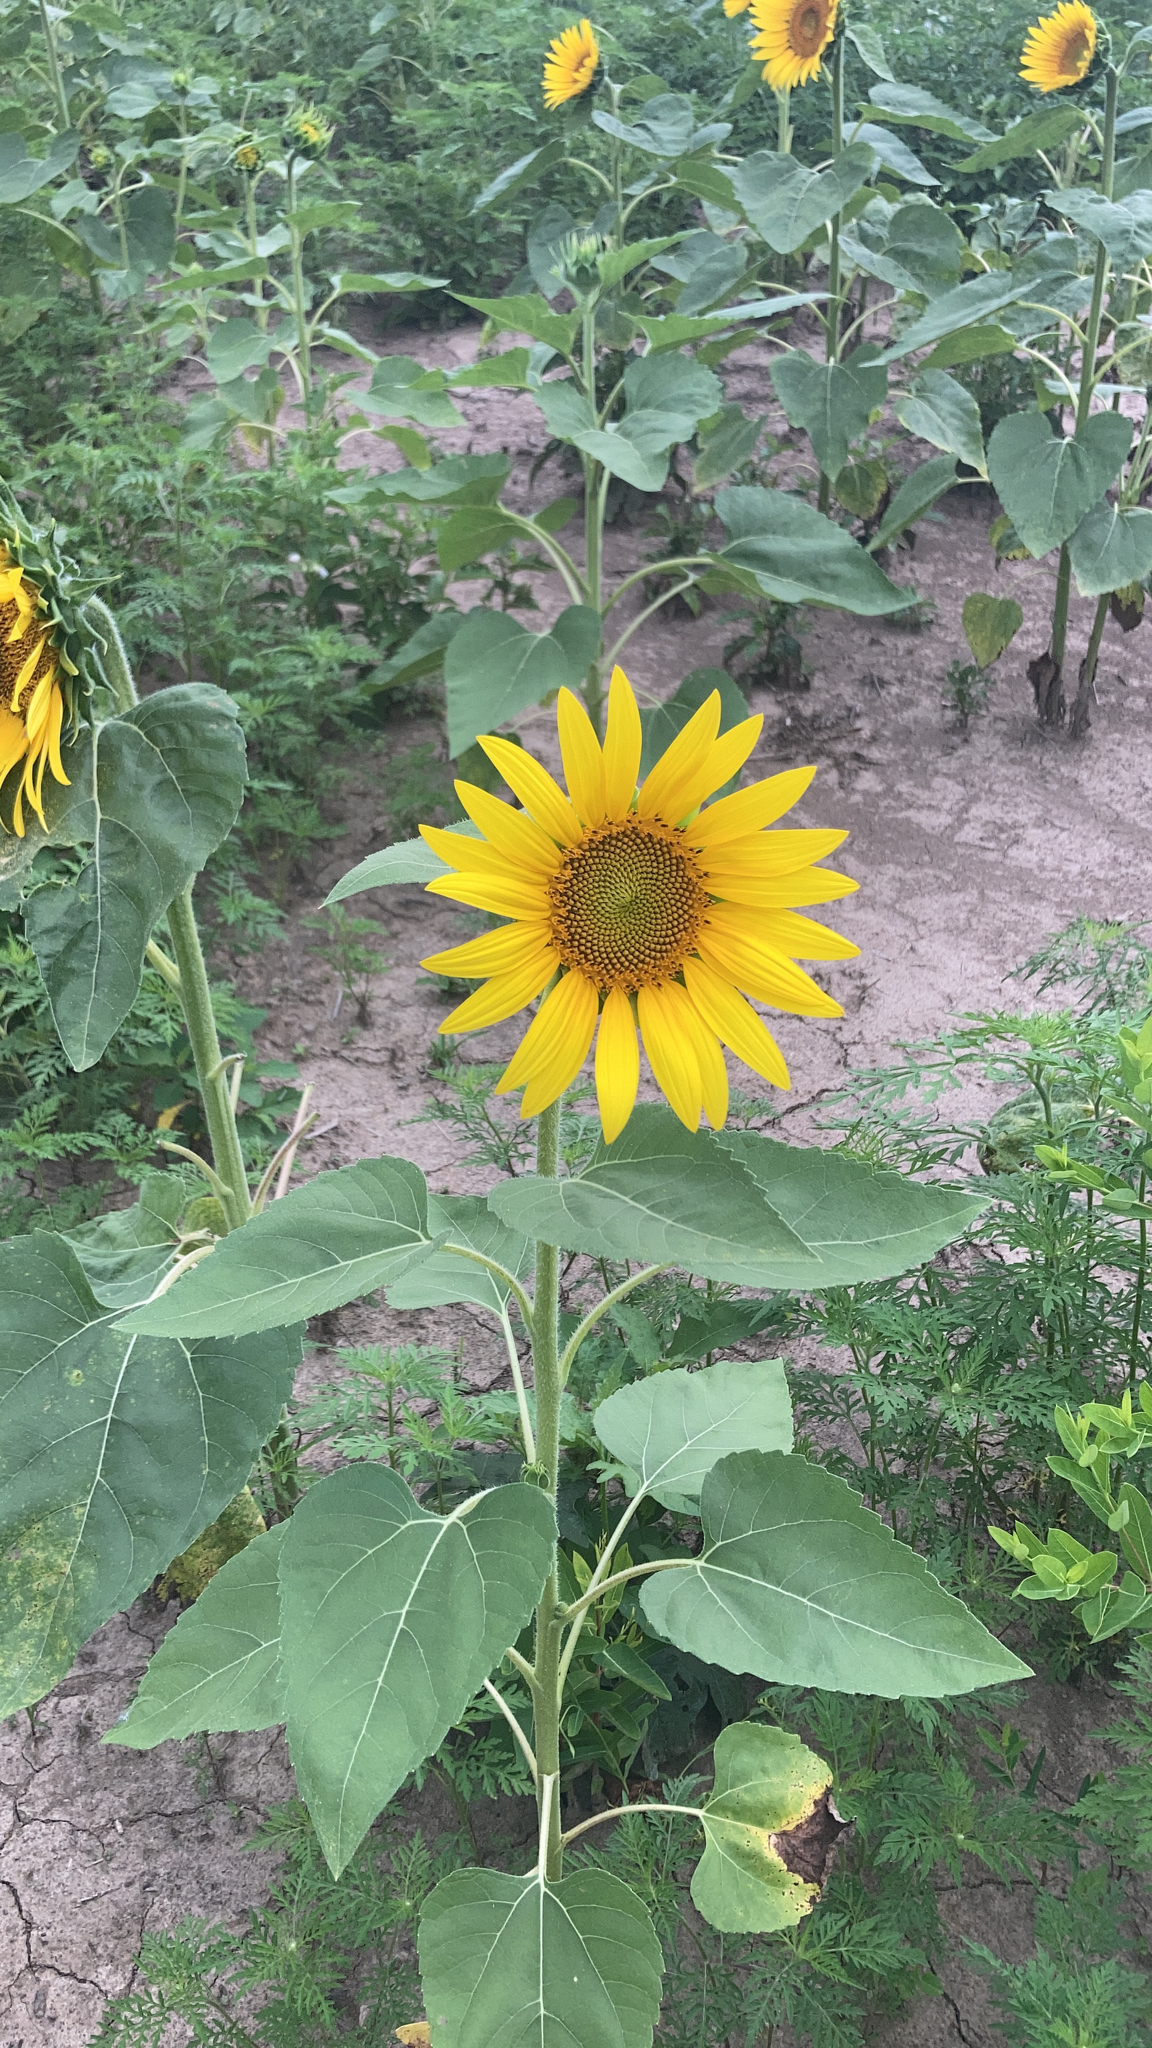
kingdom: Plantae
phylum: Tracheophyta
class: Magnoliopsida
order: Asterales
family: Asteraceae
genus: Helianthus
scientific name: Helianthus annuus
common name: Sunflower
